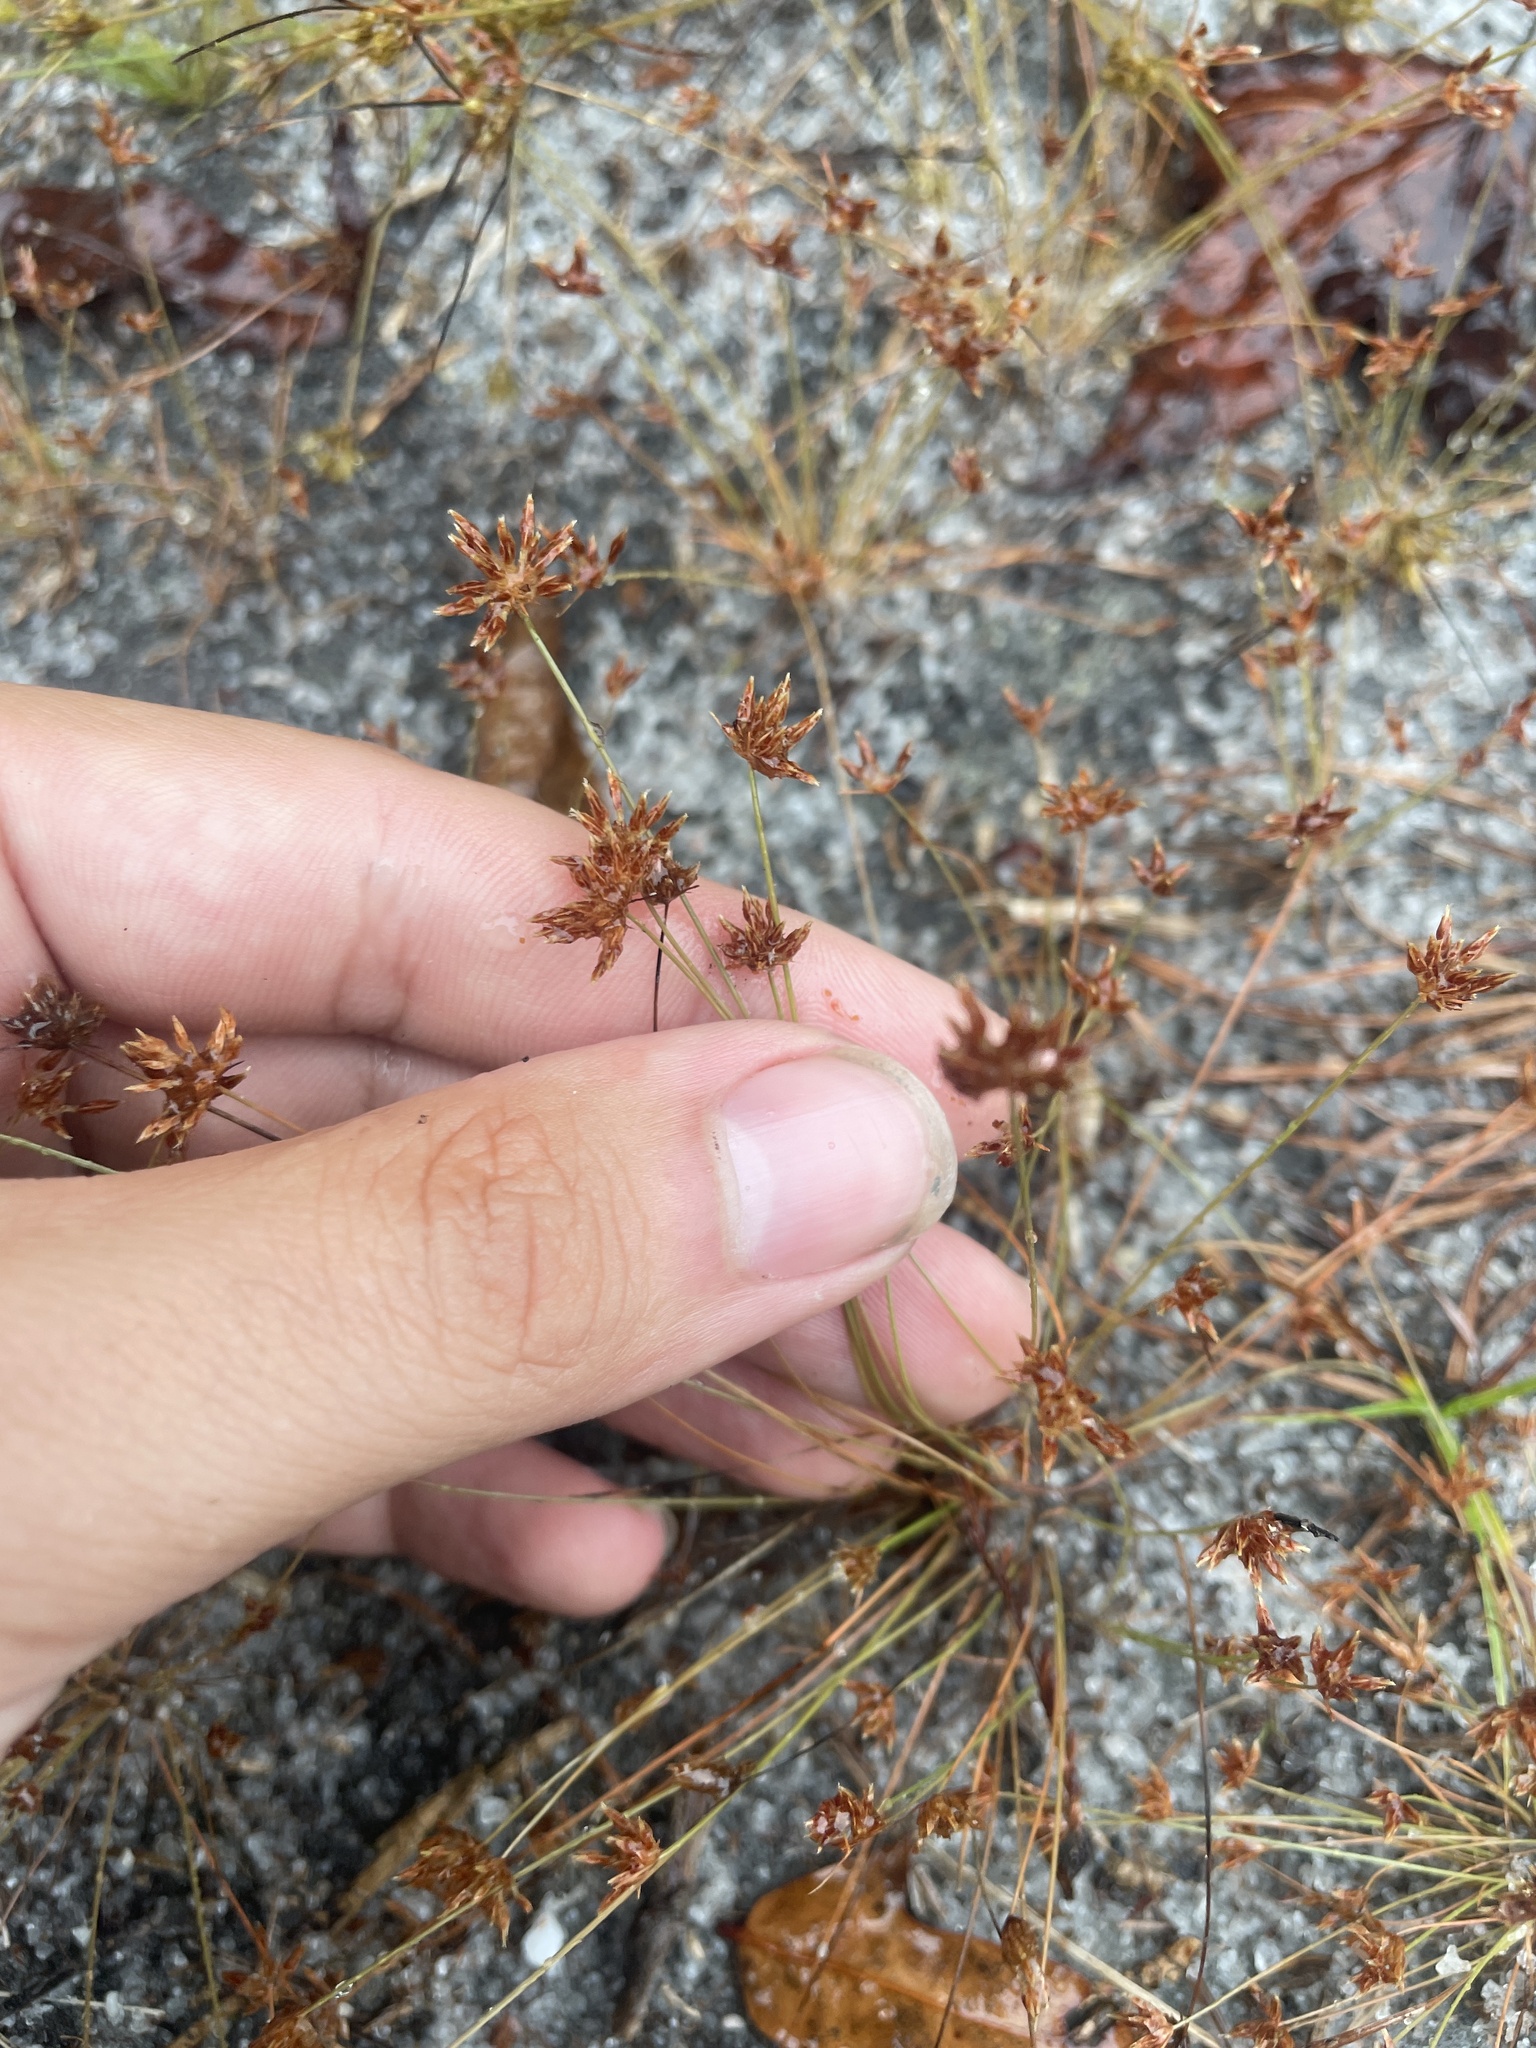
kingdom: Plantae
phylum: Tracheophyta
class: Liliopsida
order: Poales
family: Cyperaceae
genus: Bulbostylis
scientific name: Bulbostylis barbata
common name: Watergrass
